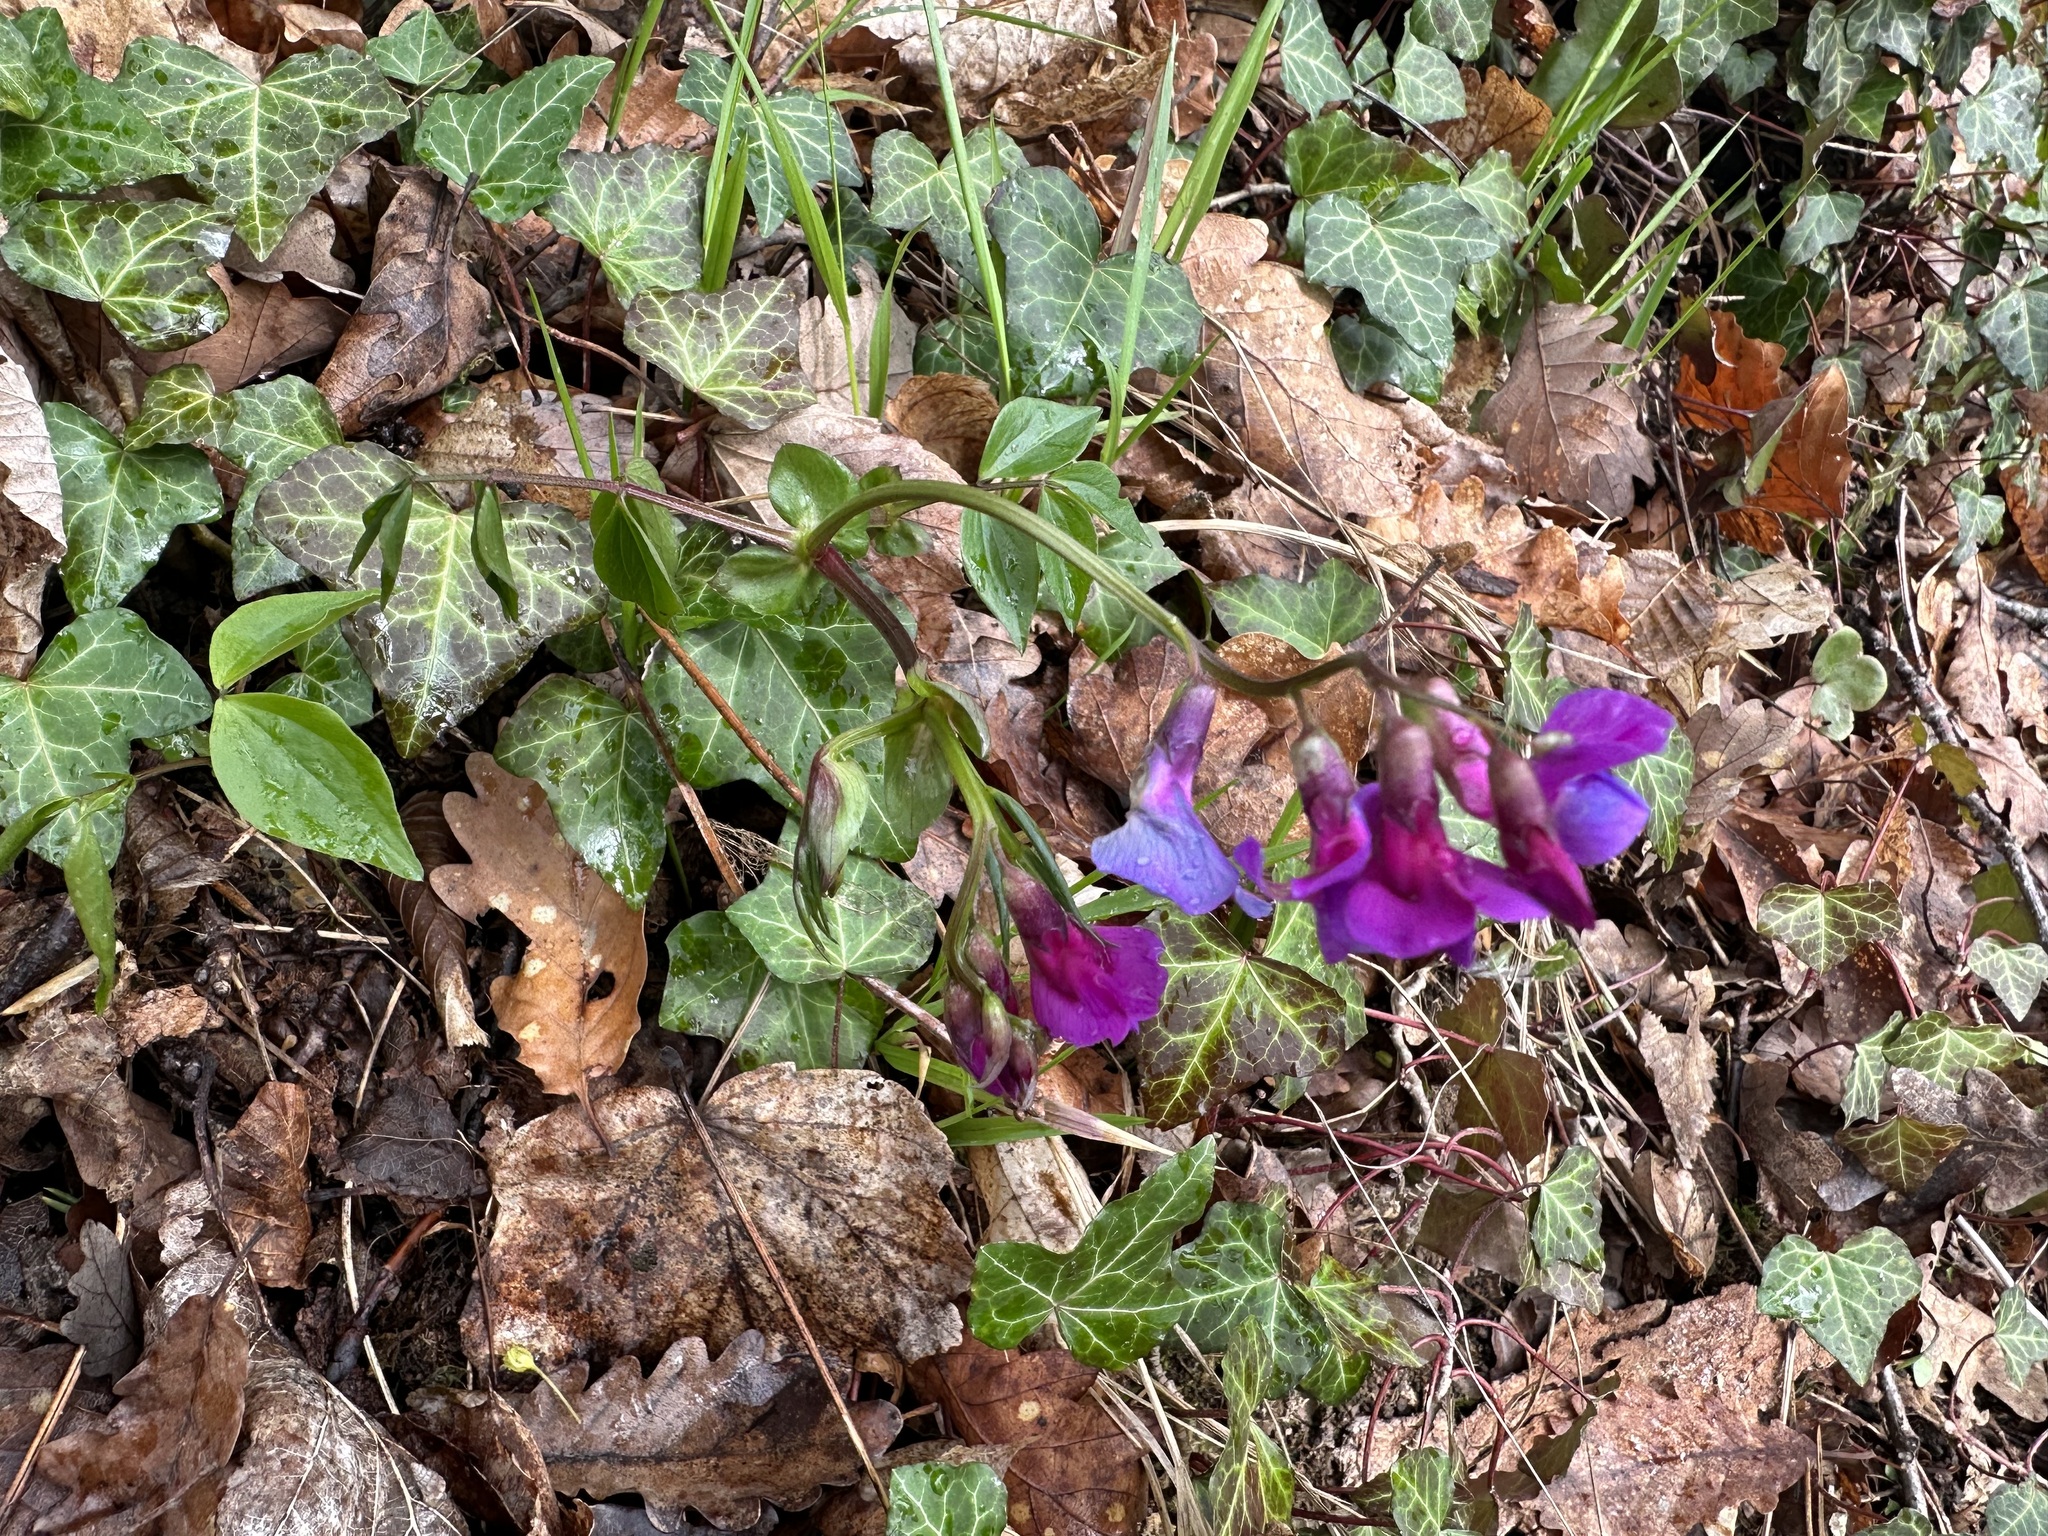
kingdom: Plantae
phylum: Tracheophyta
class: Magnoliopsida
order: Fabales
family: Fabaceae
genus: Lathyrus
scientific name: Lathyrus vernus
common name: Spring pea
